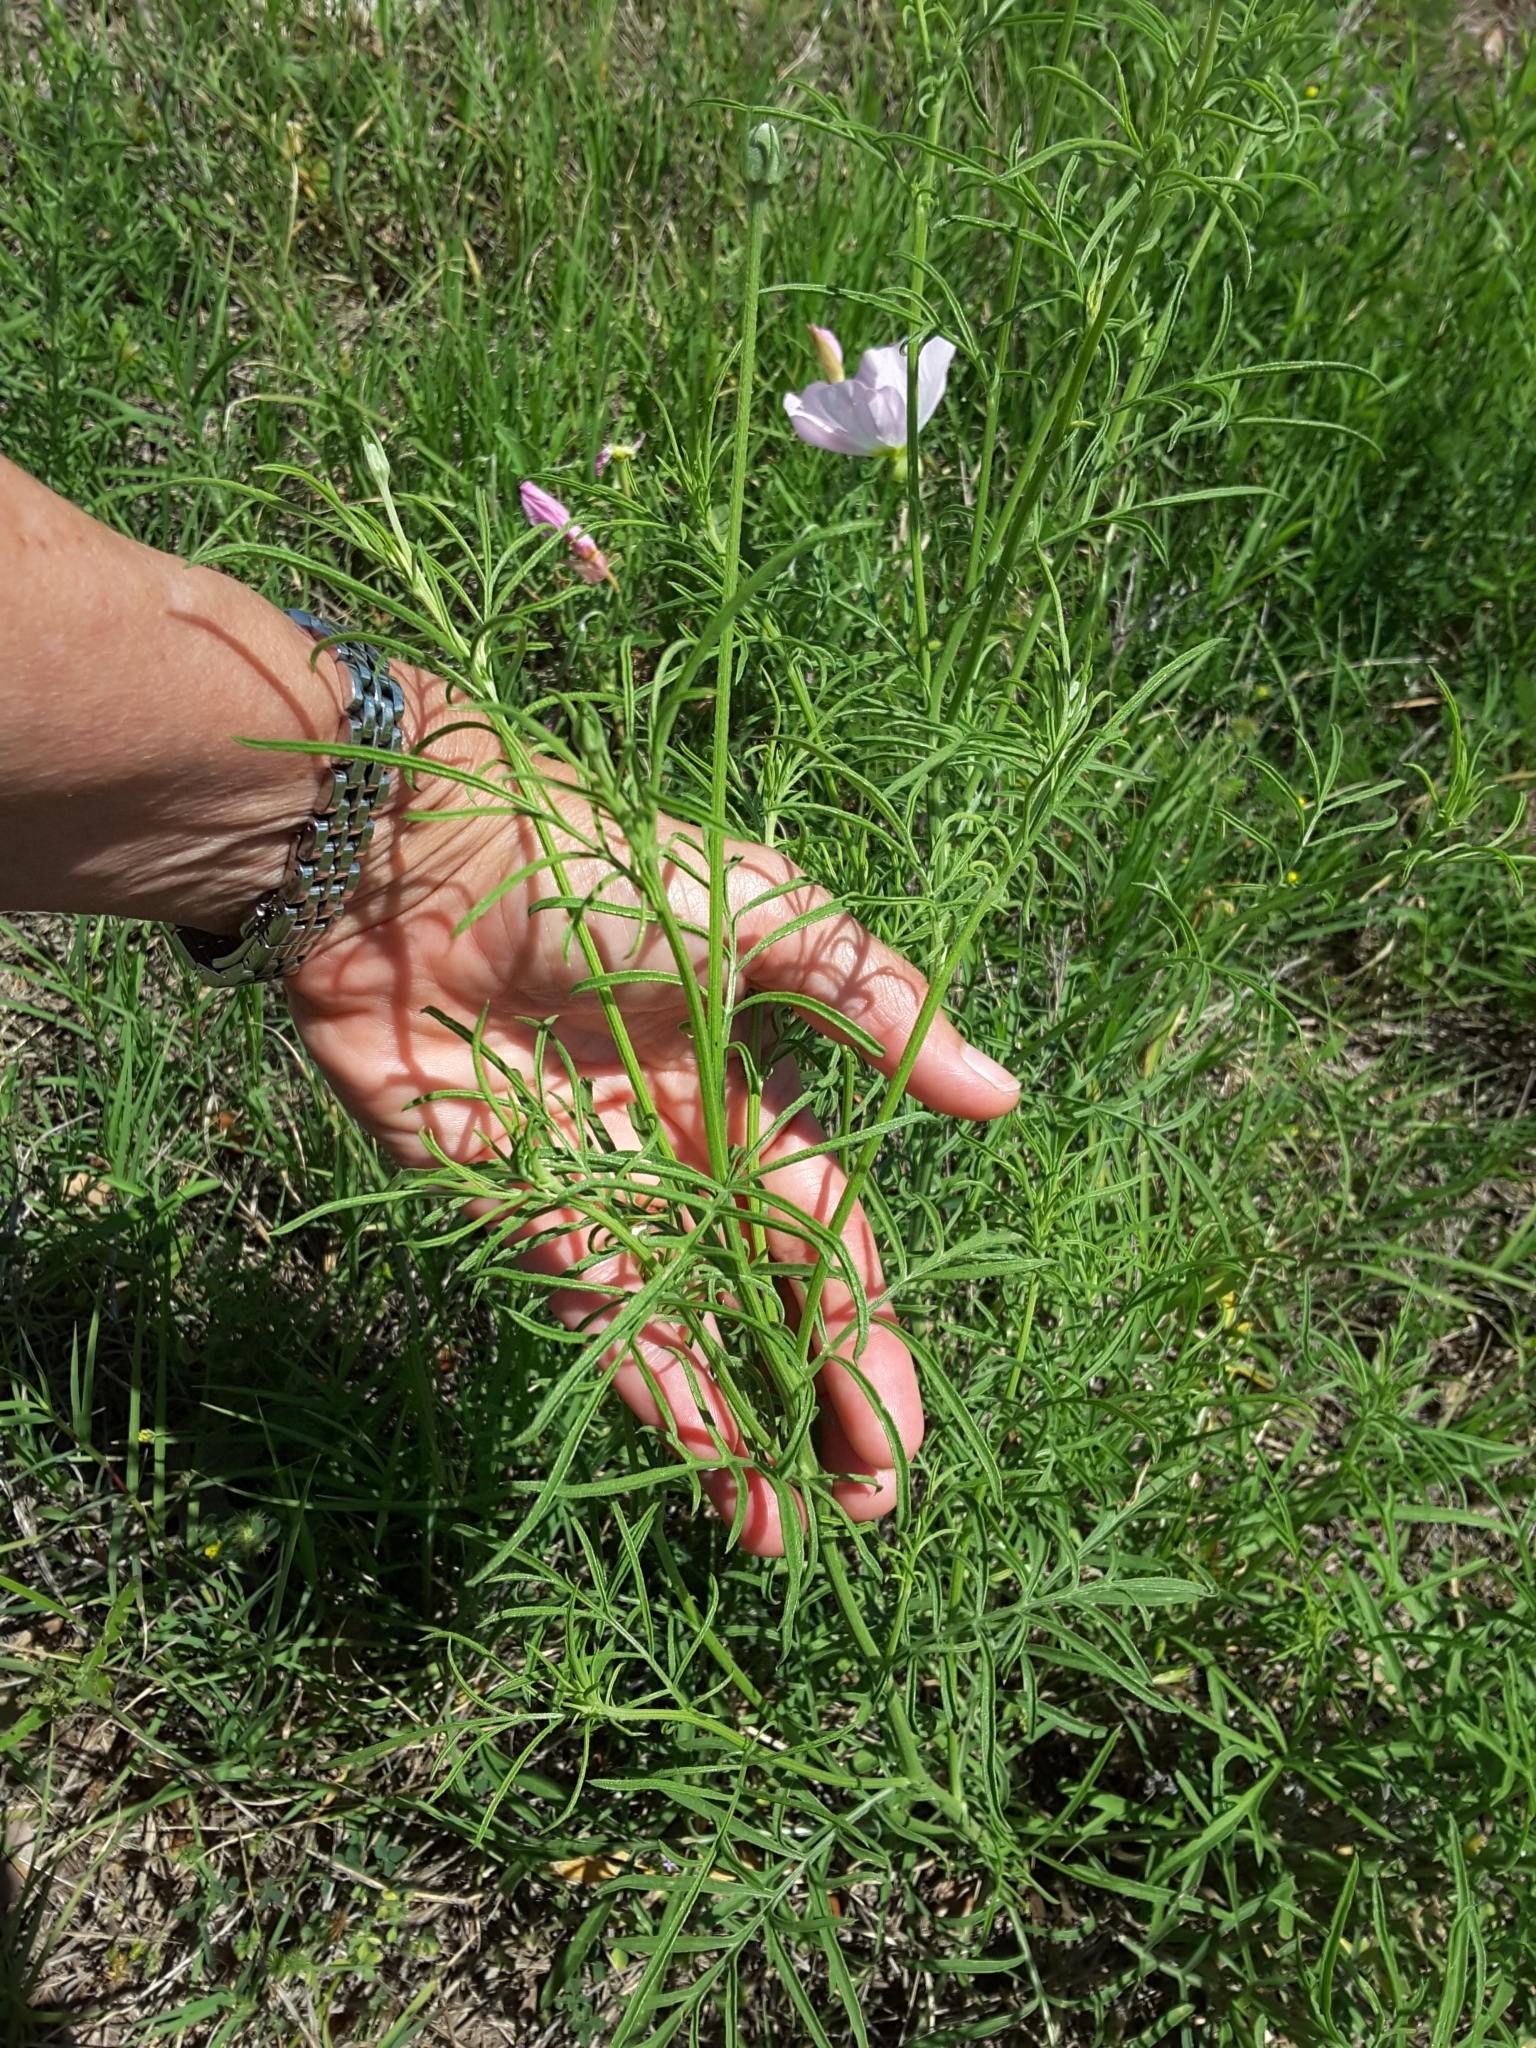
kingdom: Plantae
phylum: Tracheophyta
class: Magnoliopsida
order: Asterales
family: Asteraceae
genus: Ratibida
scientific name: Ratibida columnifera
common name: Prairie coneflower
